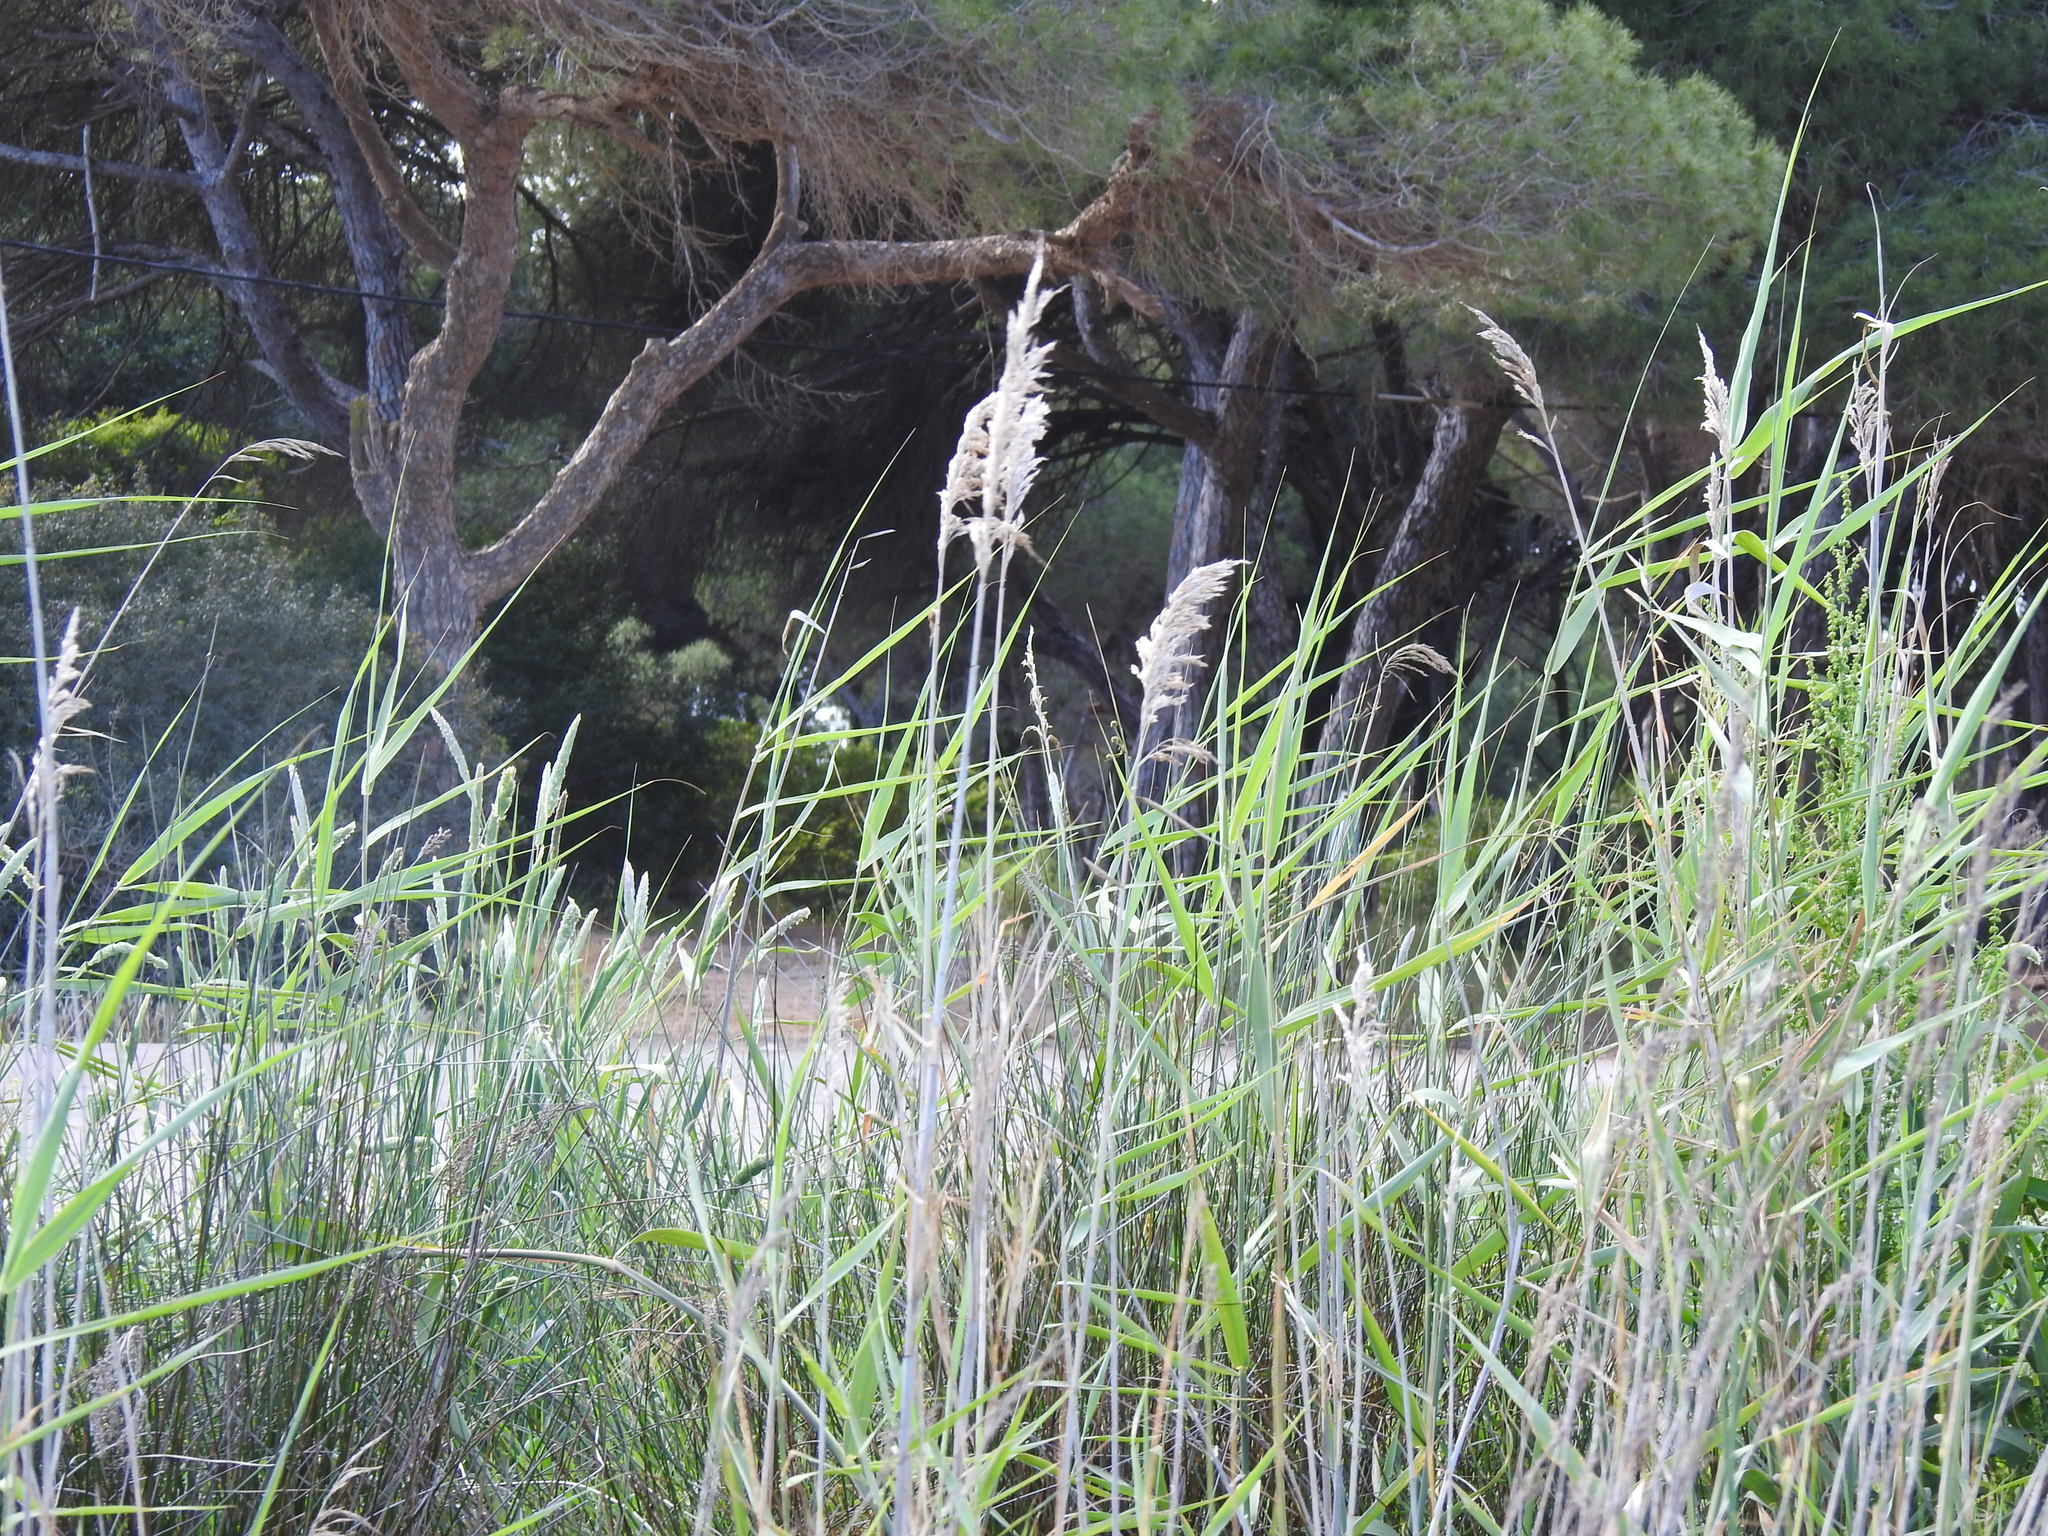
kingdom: Plantae
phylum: Tracheophyta
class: Liliopsida
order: Poales
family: Poaceae
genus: Phragmites
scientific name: Phragmites australis
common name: Common reed
